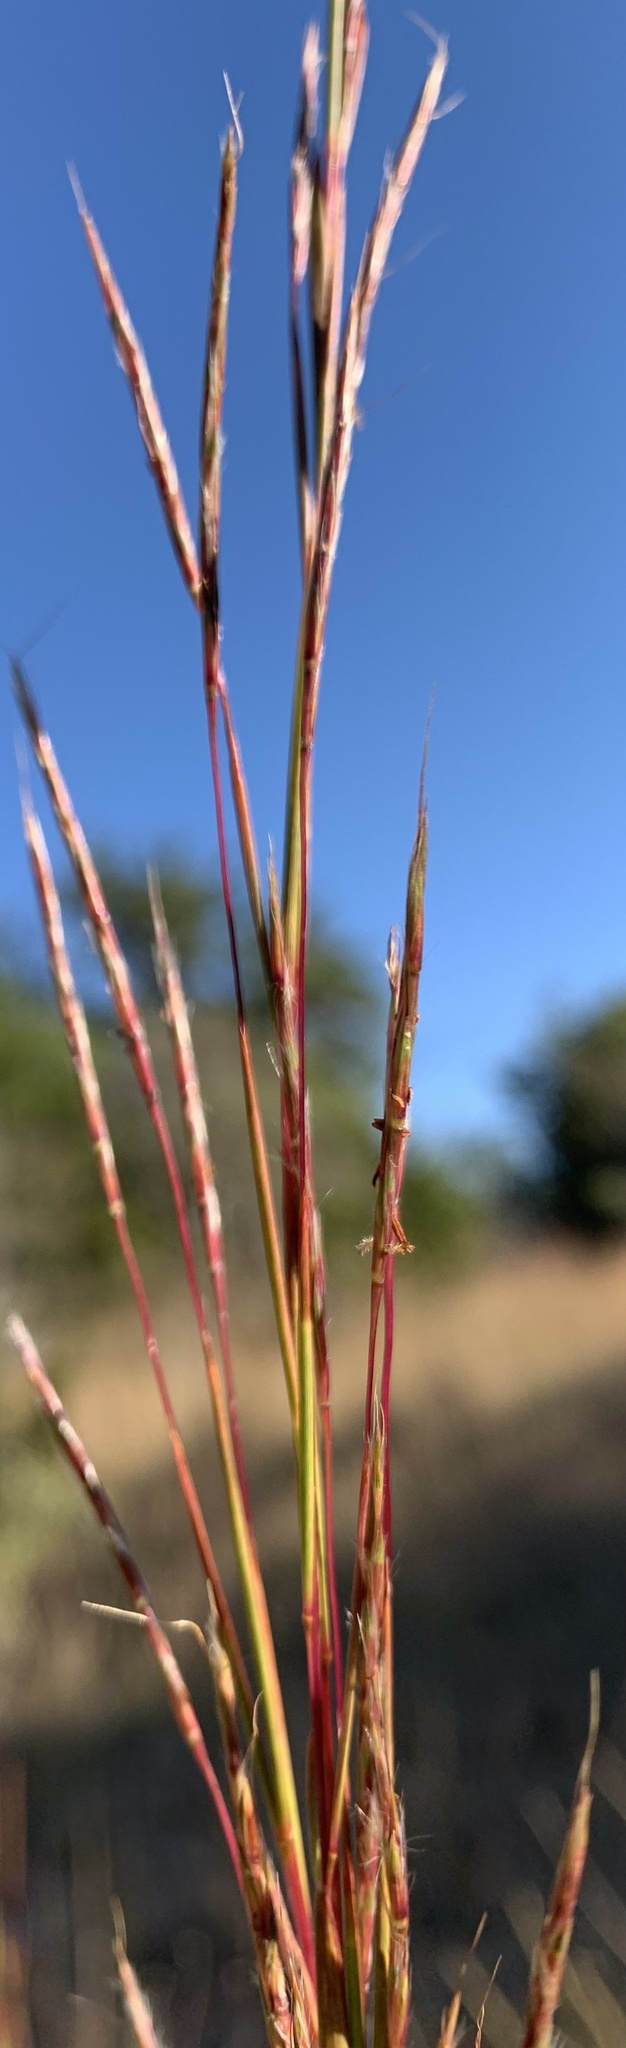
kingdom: Plantae
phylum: Tracheophyta
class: Liliopsida
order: Poales
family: Poaceae
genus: Schizachyrium
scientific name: Schizachyrium scoparium
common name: Little bluestem
